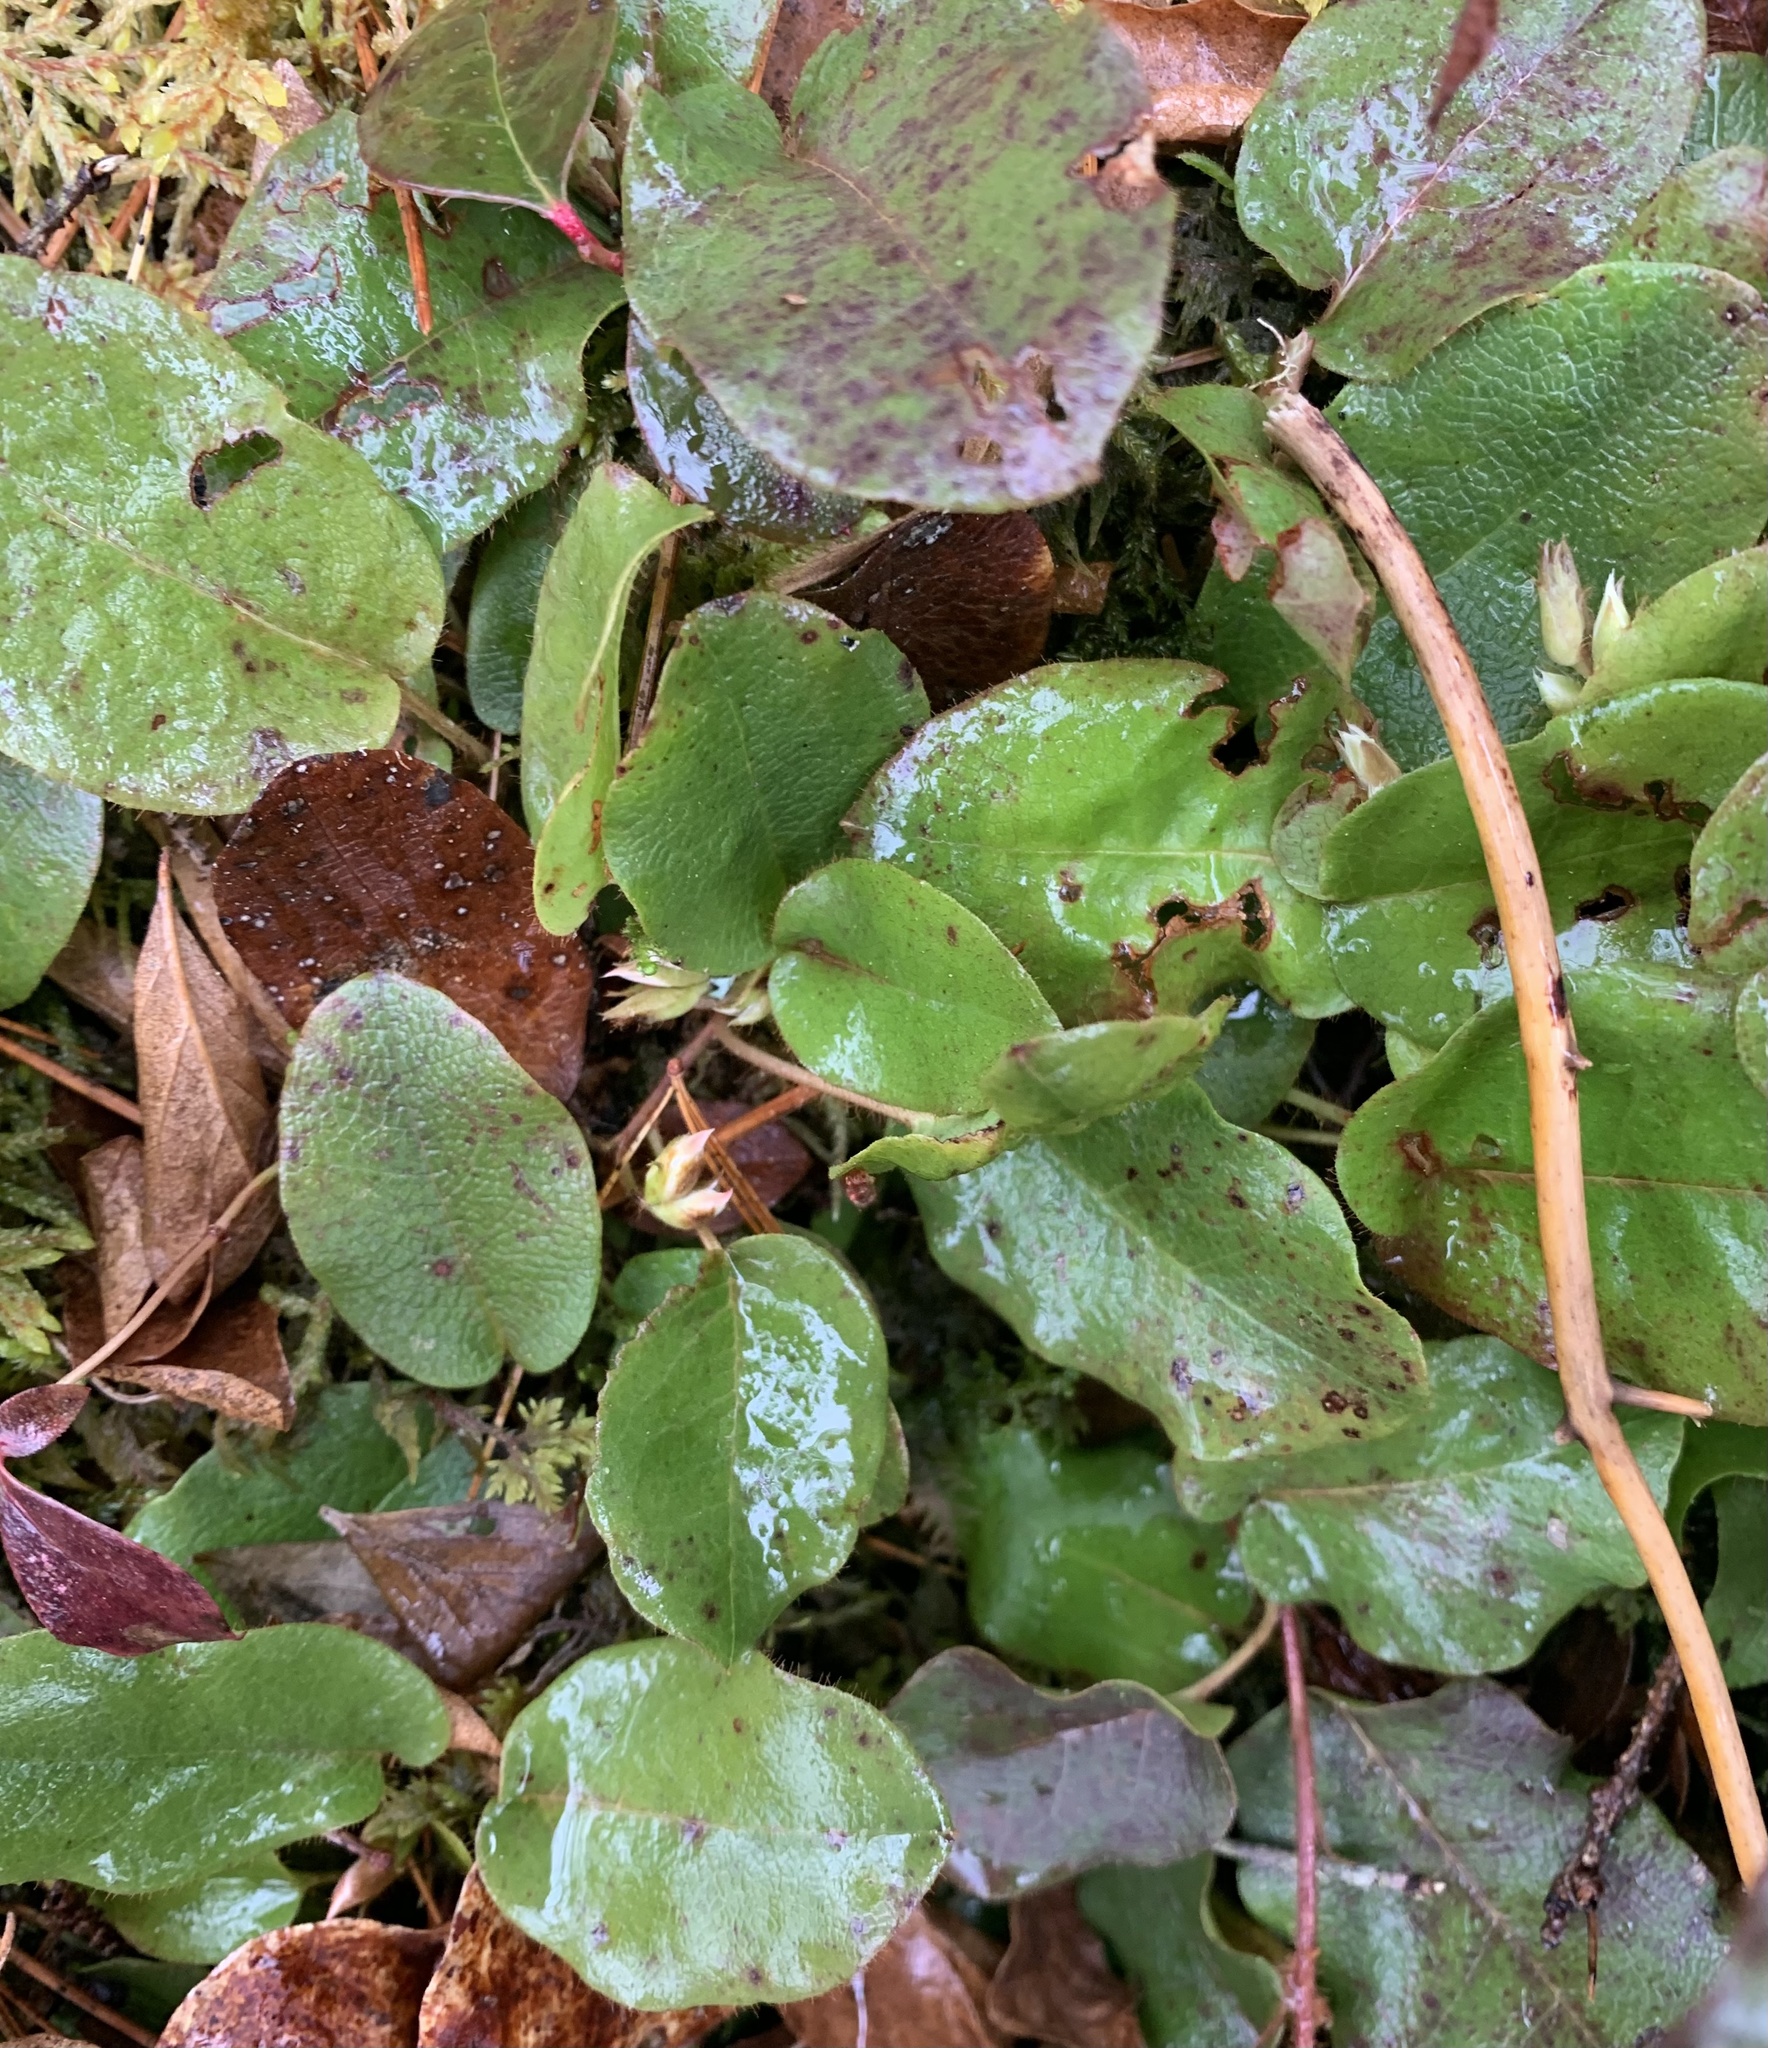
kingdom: Plantae
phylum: Tracheophyta
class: Magnoliopsida
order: Ericales
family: Ericaceae
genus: Epigaea
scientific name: Epigaea repens
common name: Gravelroot
